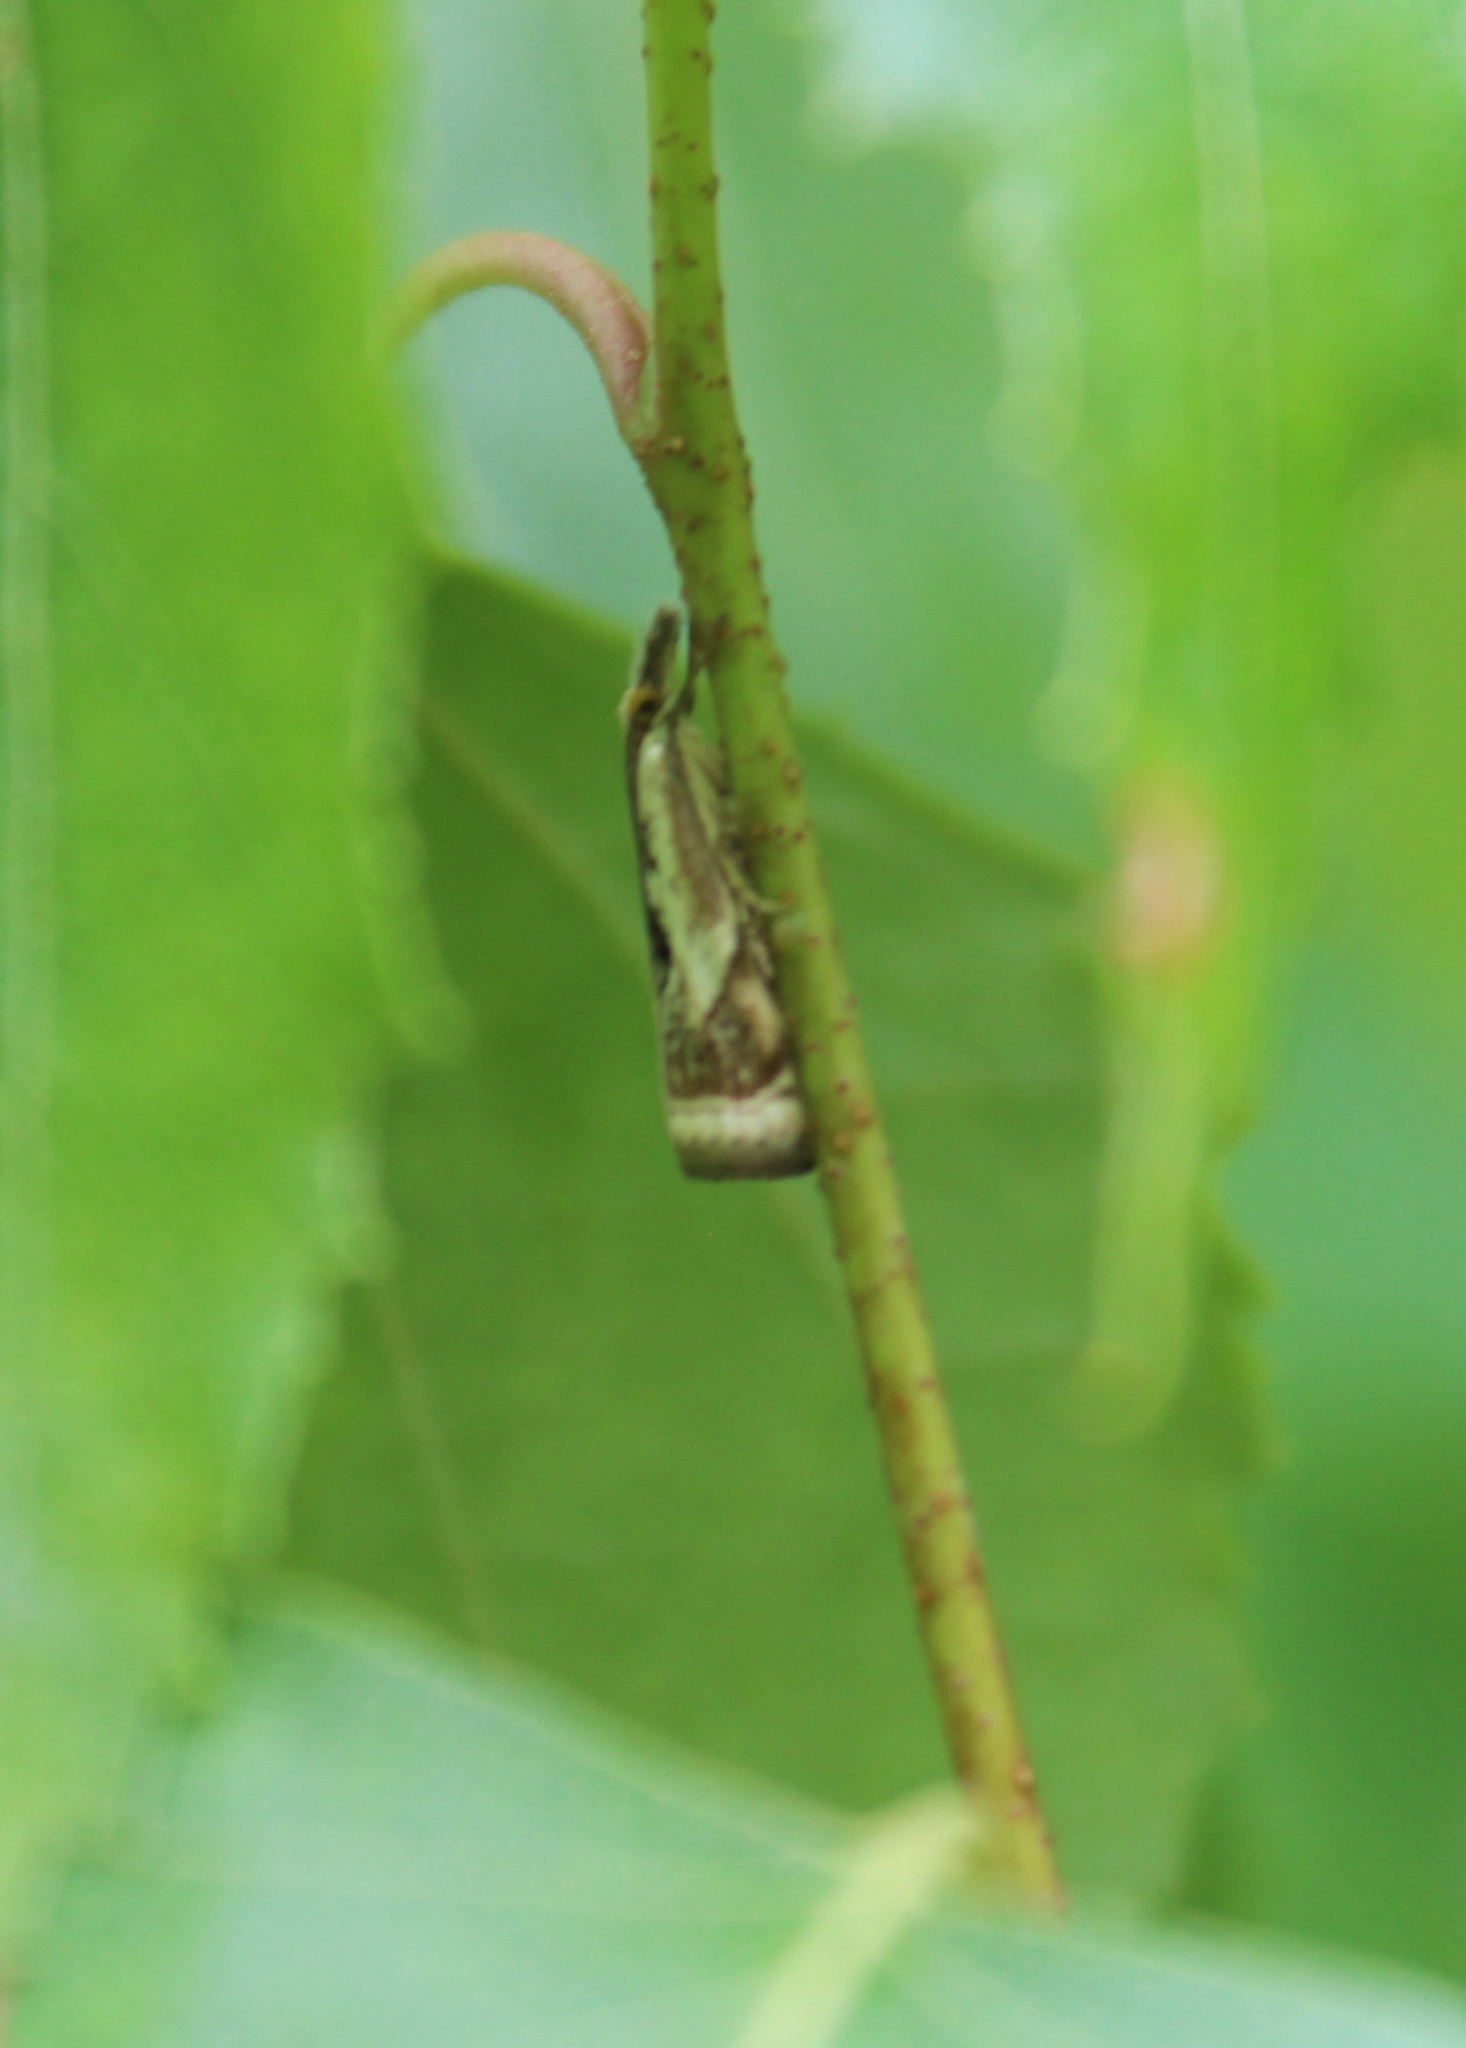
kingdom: Animalia
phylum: Arthropoda
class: Insecta
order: Lepidoptera
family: Crambidae
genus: Microcrambus
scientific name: Microcrambus elegans
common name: Elegant grass-veneer
